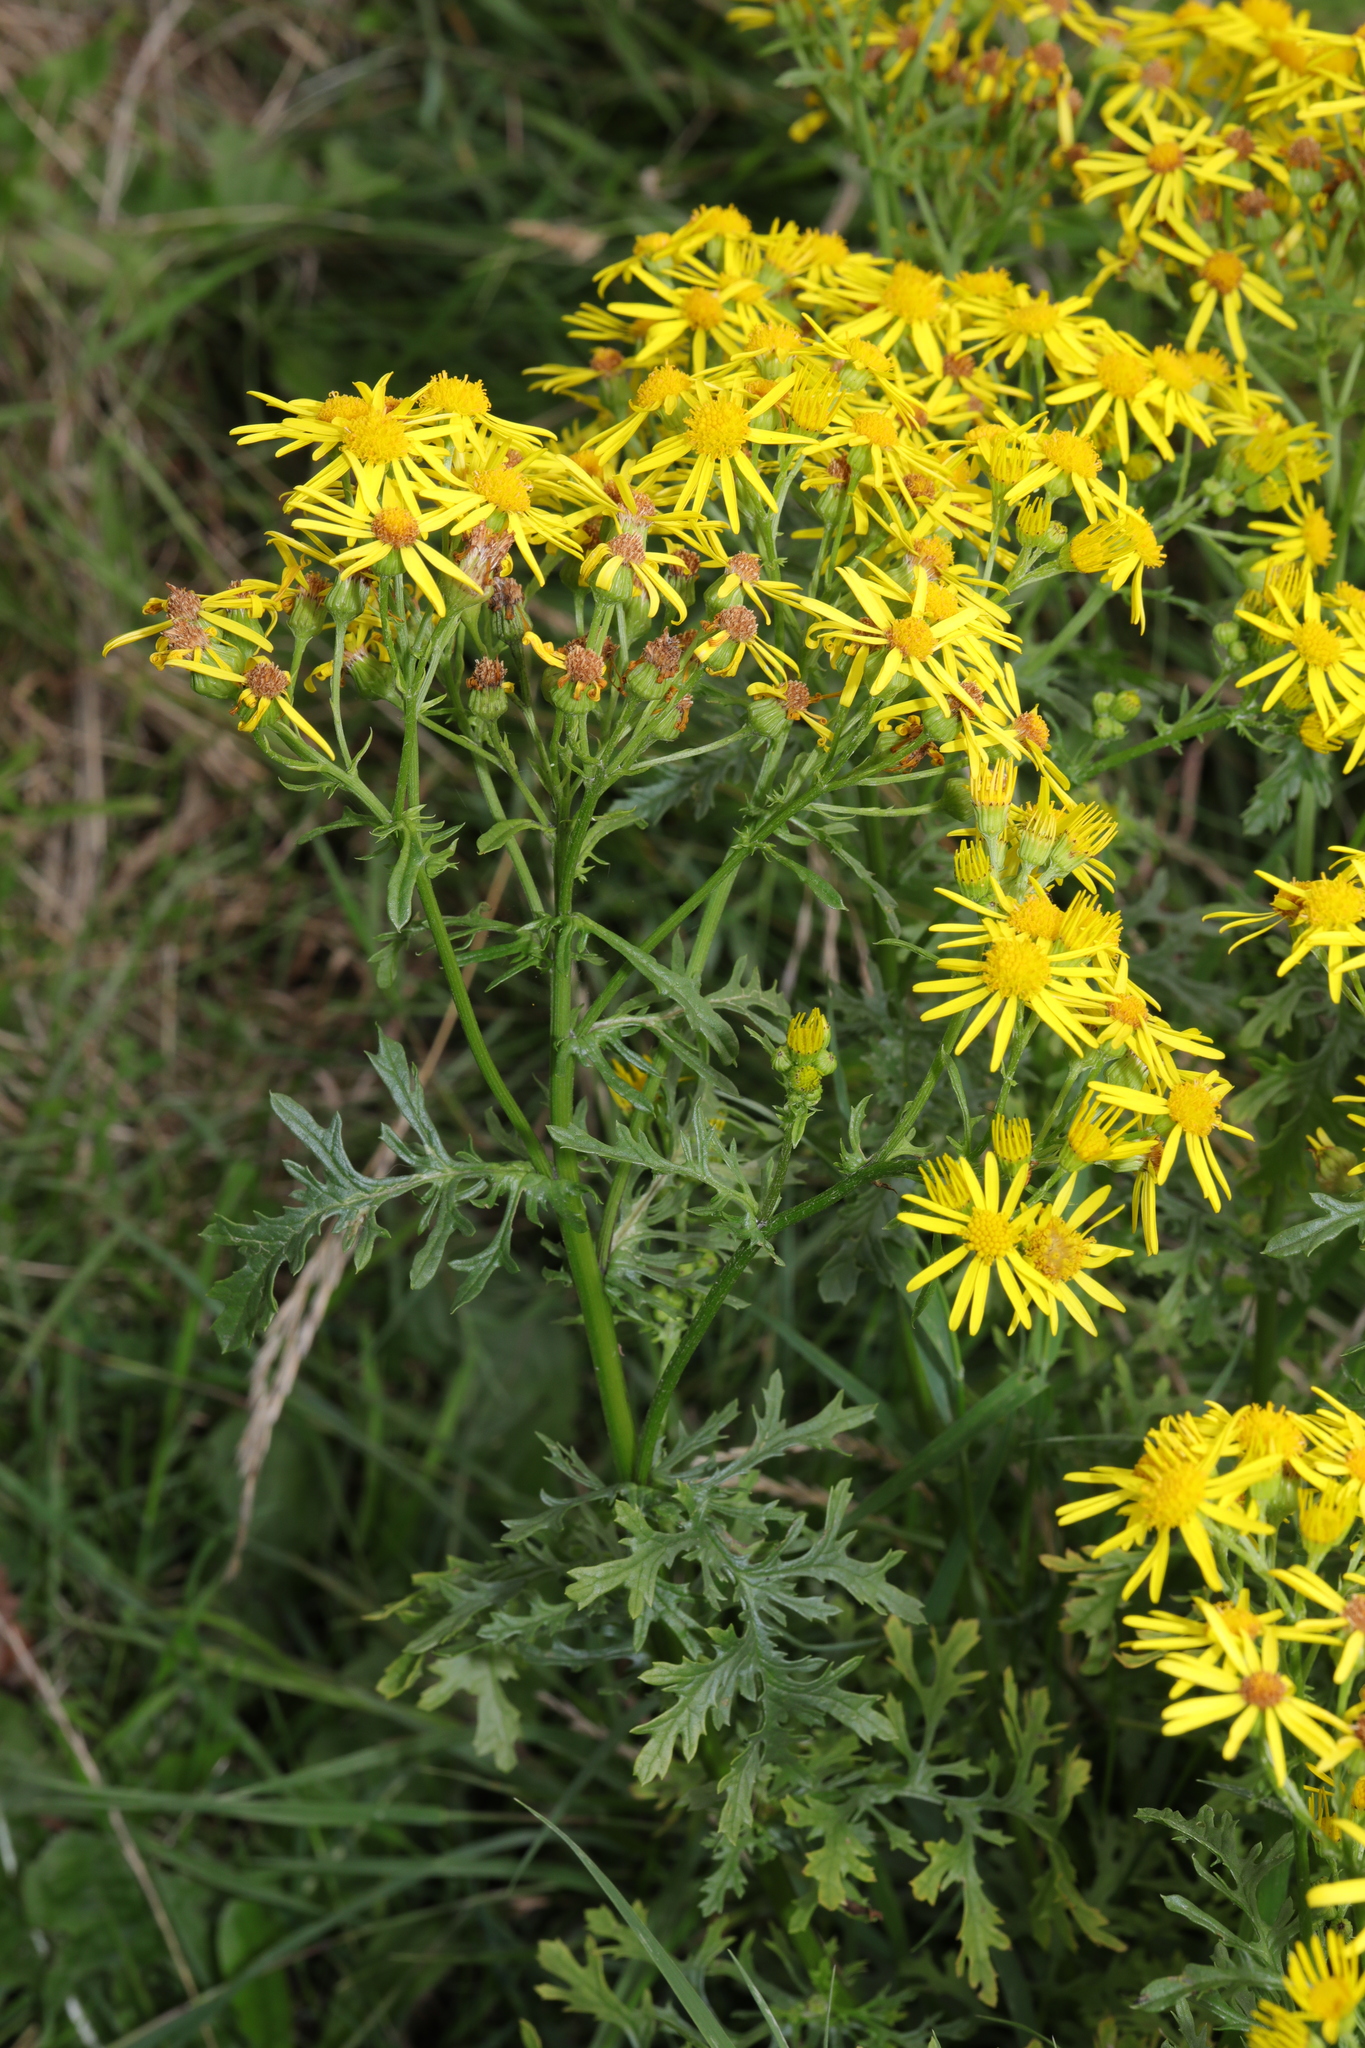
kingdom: Plantae
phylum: Tracheophyta
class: Magnoliopsida
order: Asterales
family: Asteraceae
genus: Jacobaea
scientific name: Jacobaea vulgaris
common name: Stinking willie
